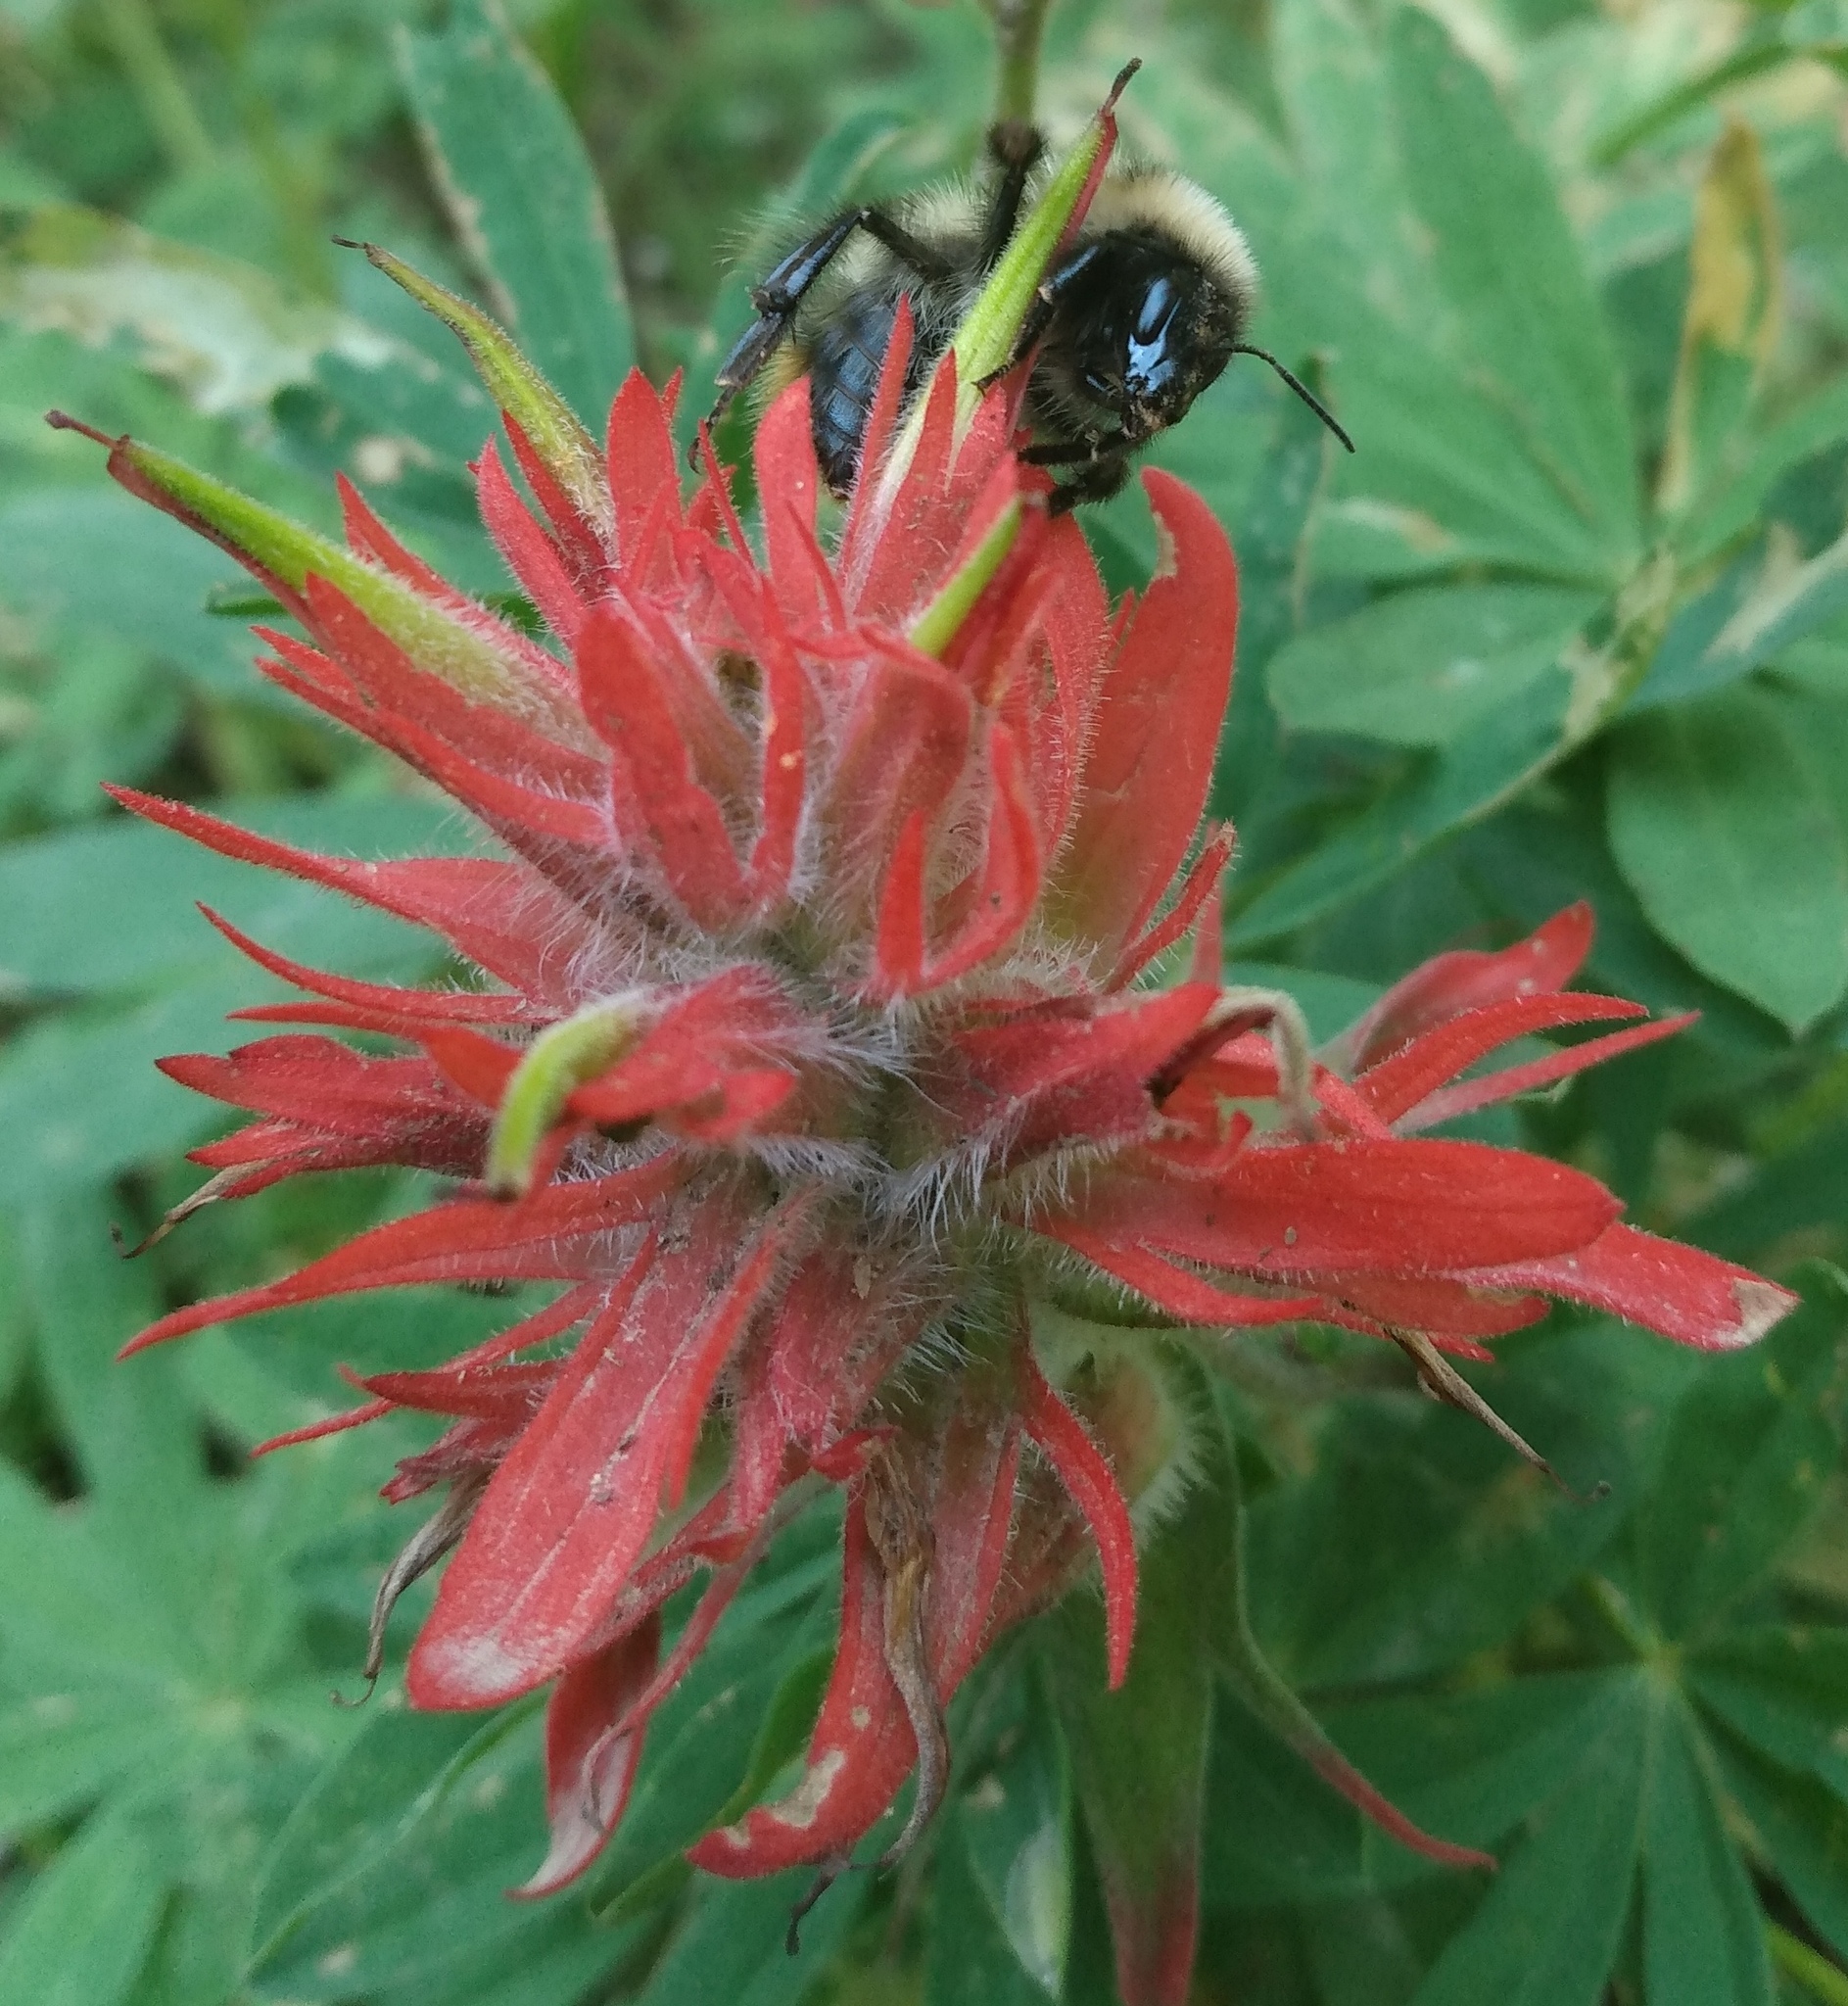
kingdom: Animalia
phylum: Arthropoda
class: Insecta
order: Hymenoptera
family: Apidae
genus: Bombus
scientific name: Bombus kirbiellus
